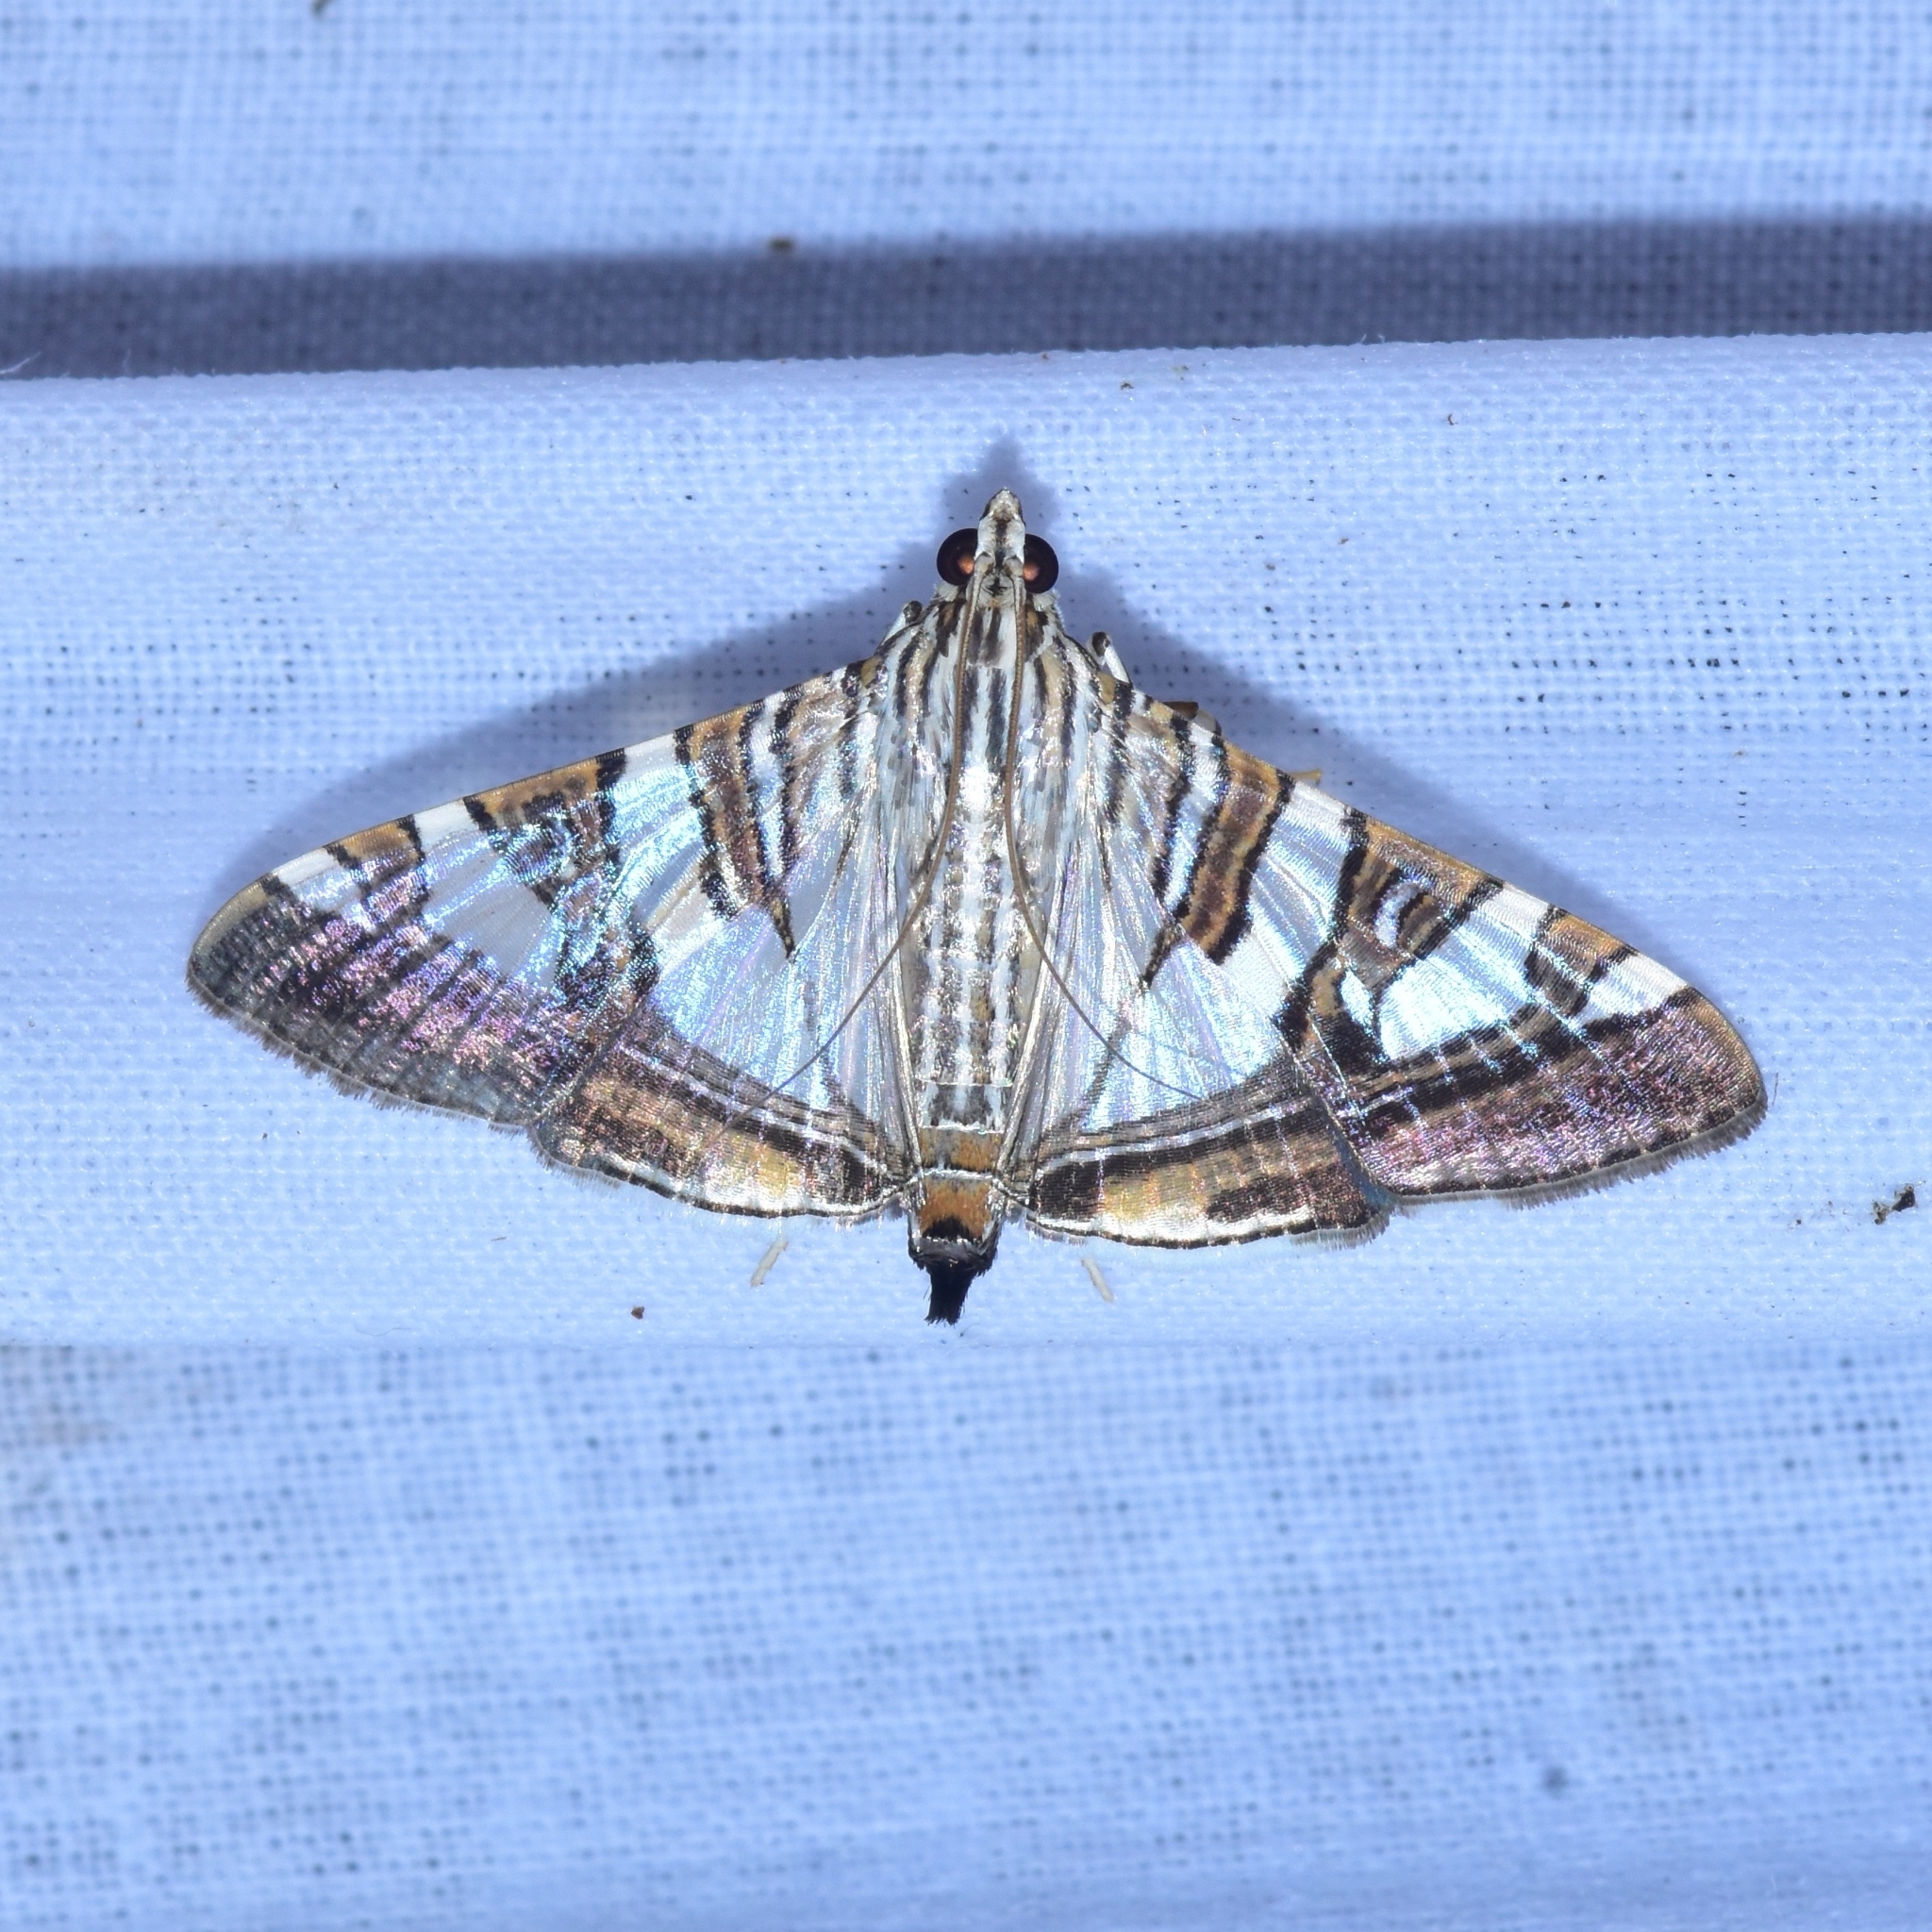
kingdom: Animalia
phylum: Arthropoda
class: Insecta
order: Lepidoptera
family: Crambidae
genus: Glyphodes
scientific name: Glyphodes stolalis
